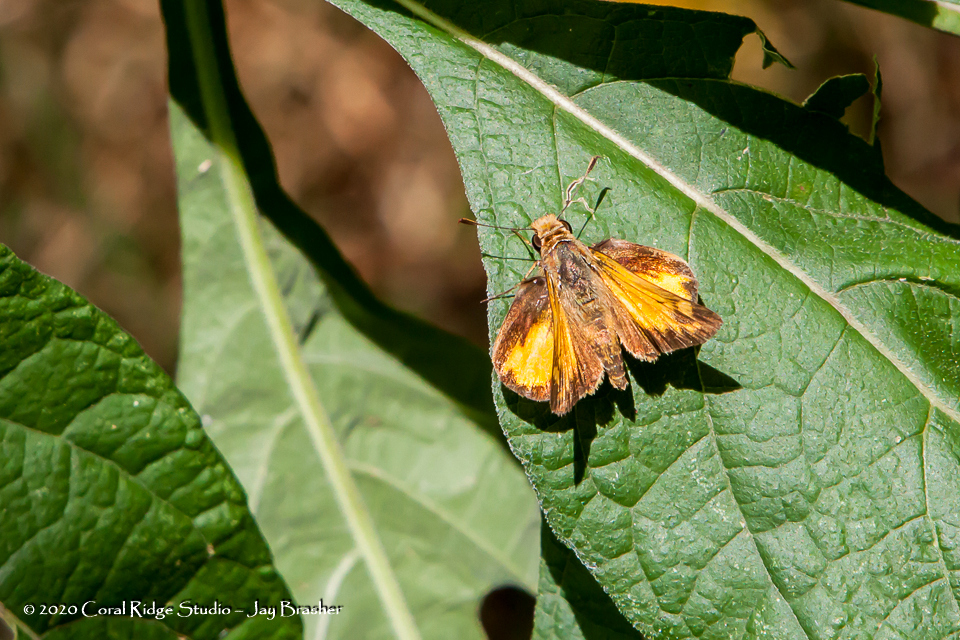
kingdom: Animalia
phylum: Arthropoda
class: Insecta
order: Lepidoptera
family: Hesperiidae
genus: Lon
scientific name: Lon zabulon
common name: Zabulon skipper
